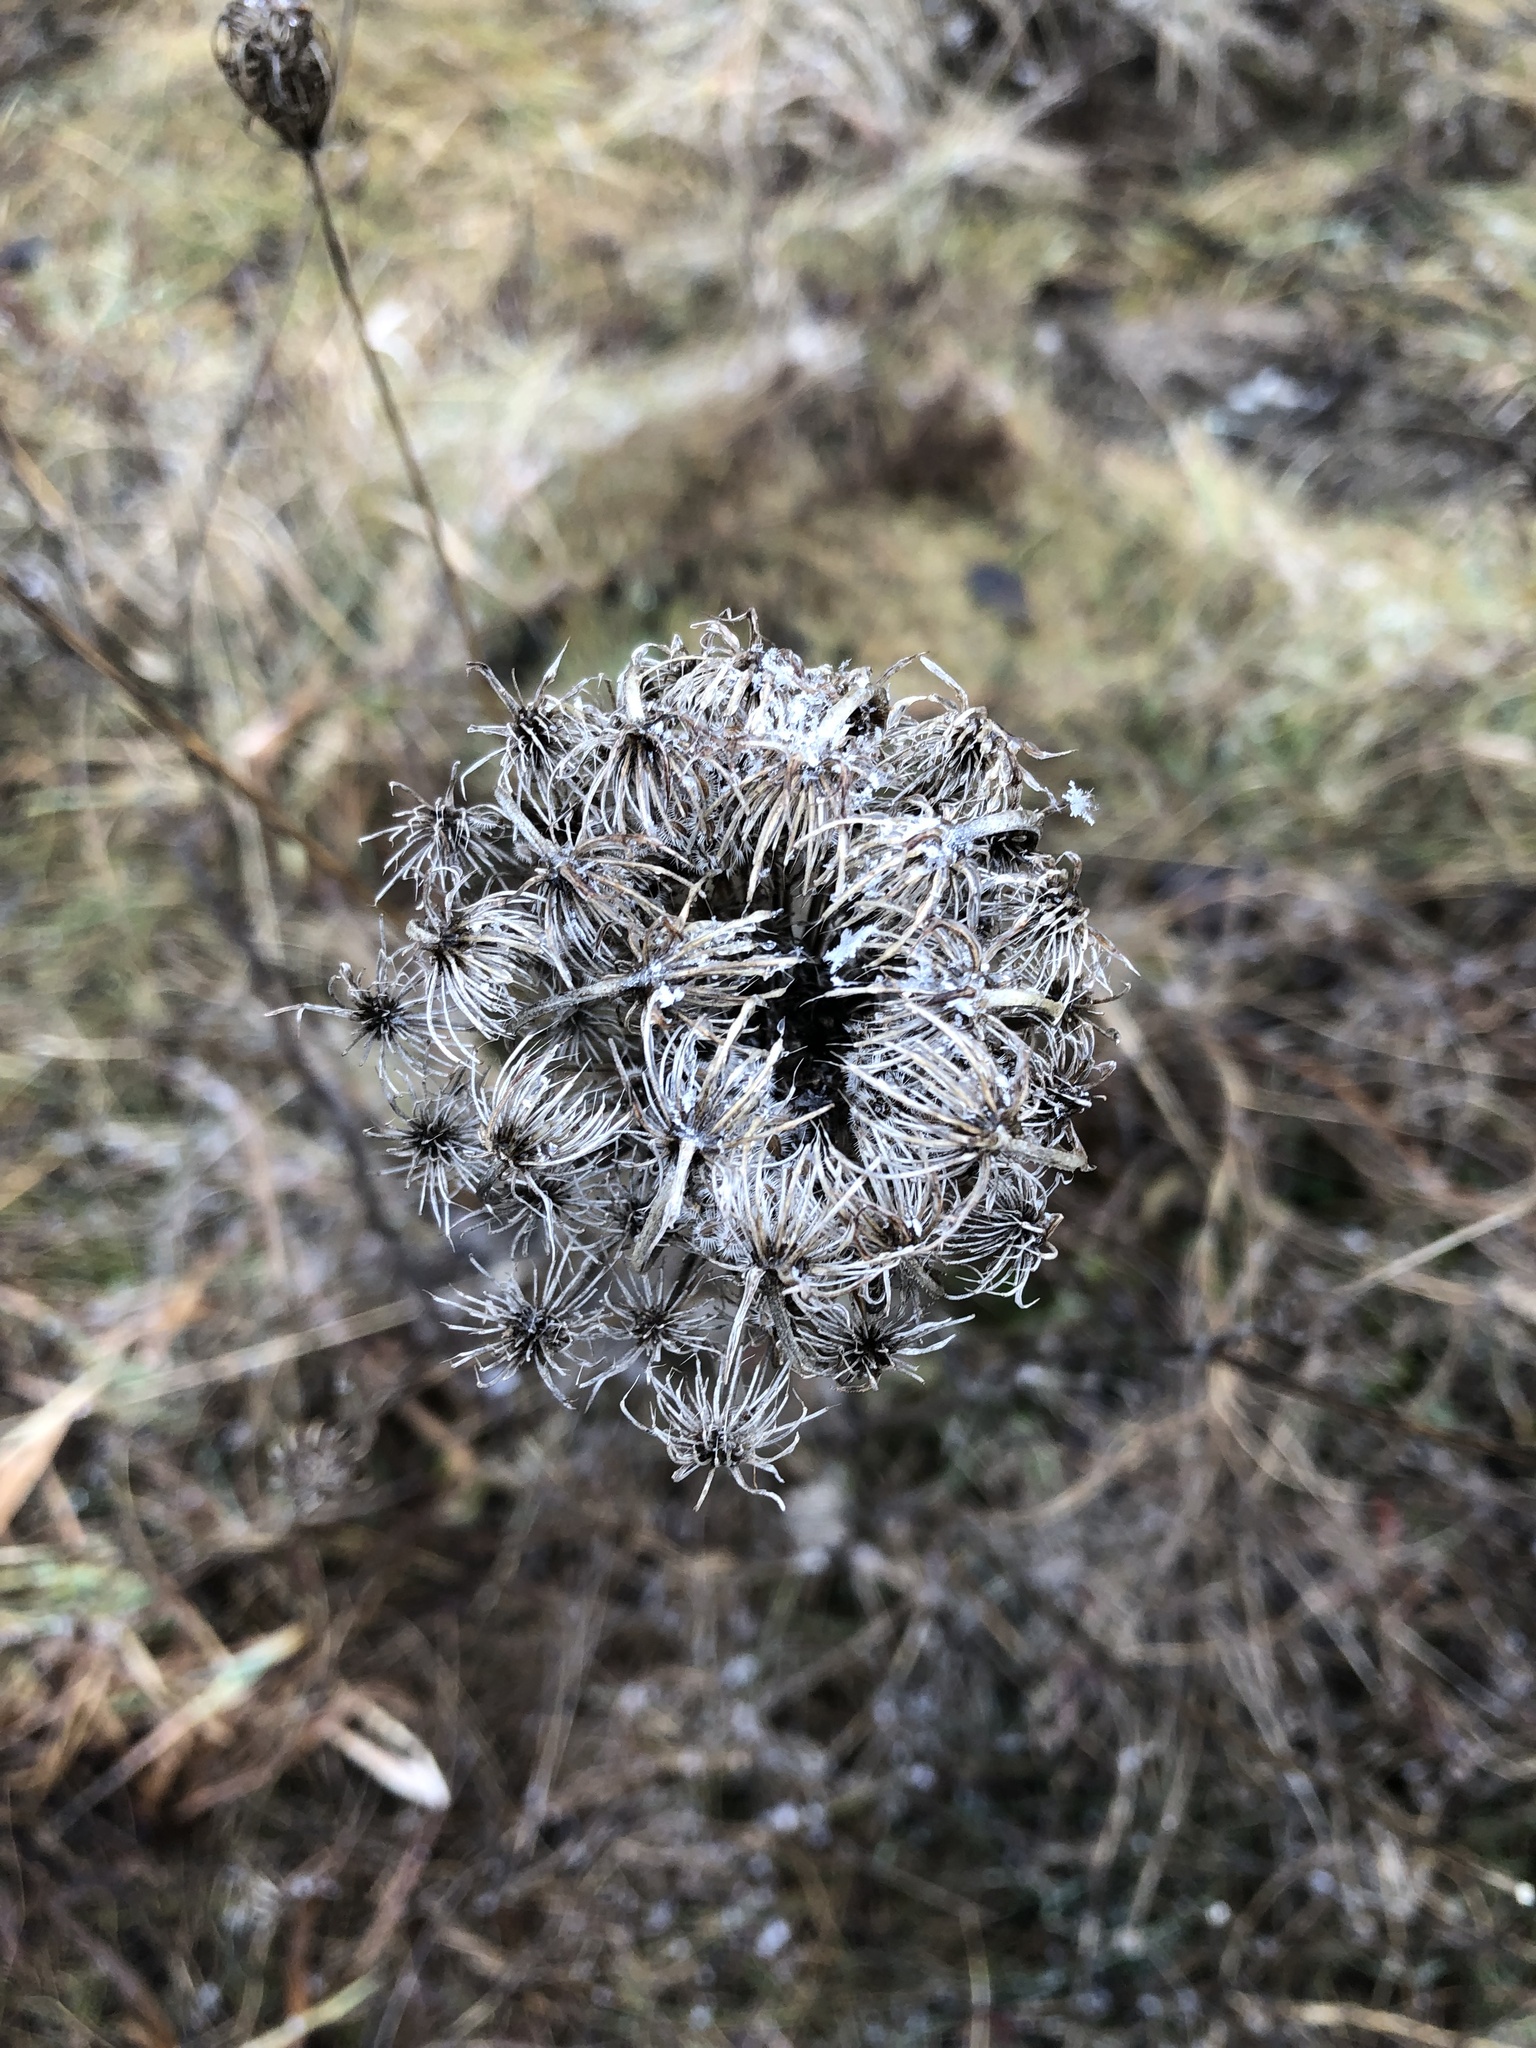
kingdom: Plantae
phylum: Tracheophyta
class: Magnoliopsida
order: Apiales
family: Apiaceae
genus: Daucus
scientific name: Daucus carota
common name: Wild carrot
